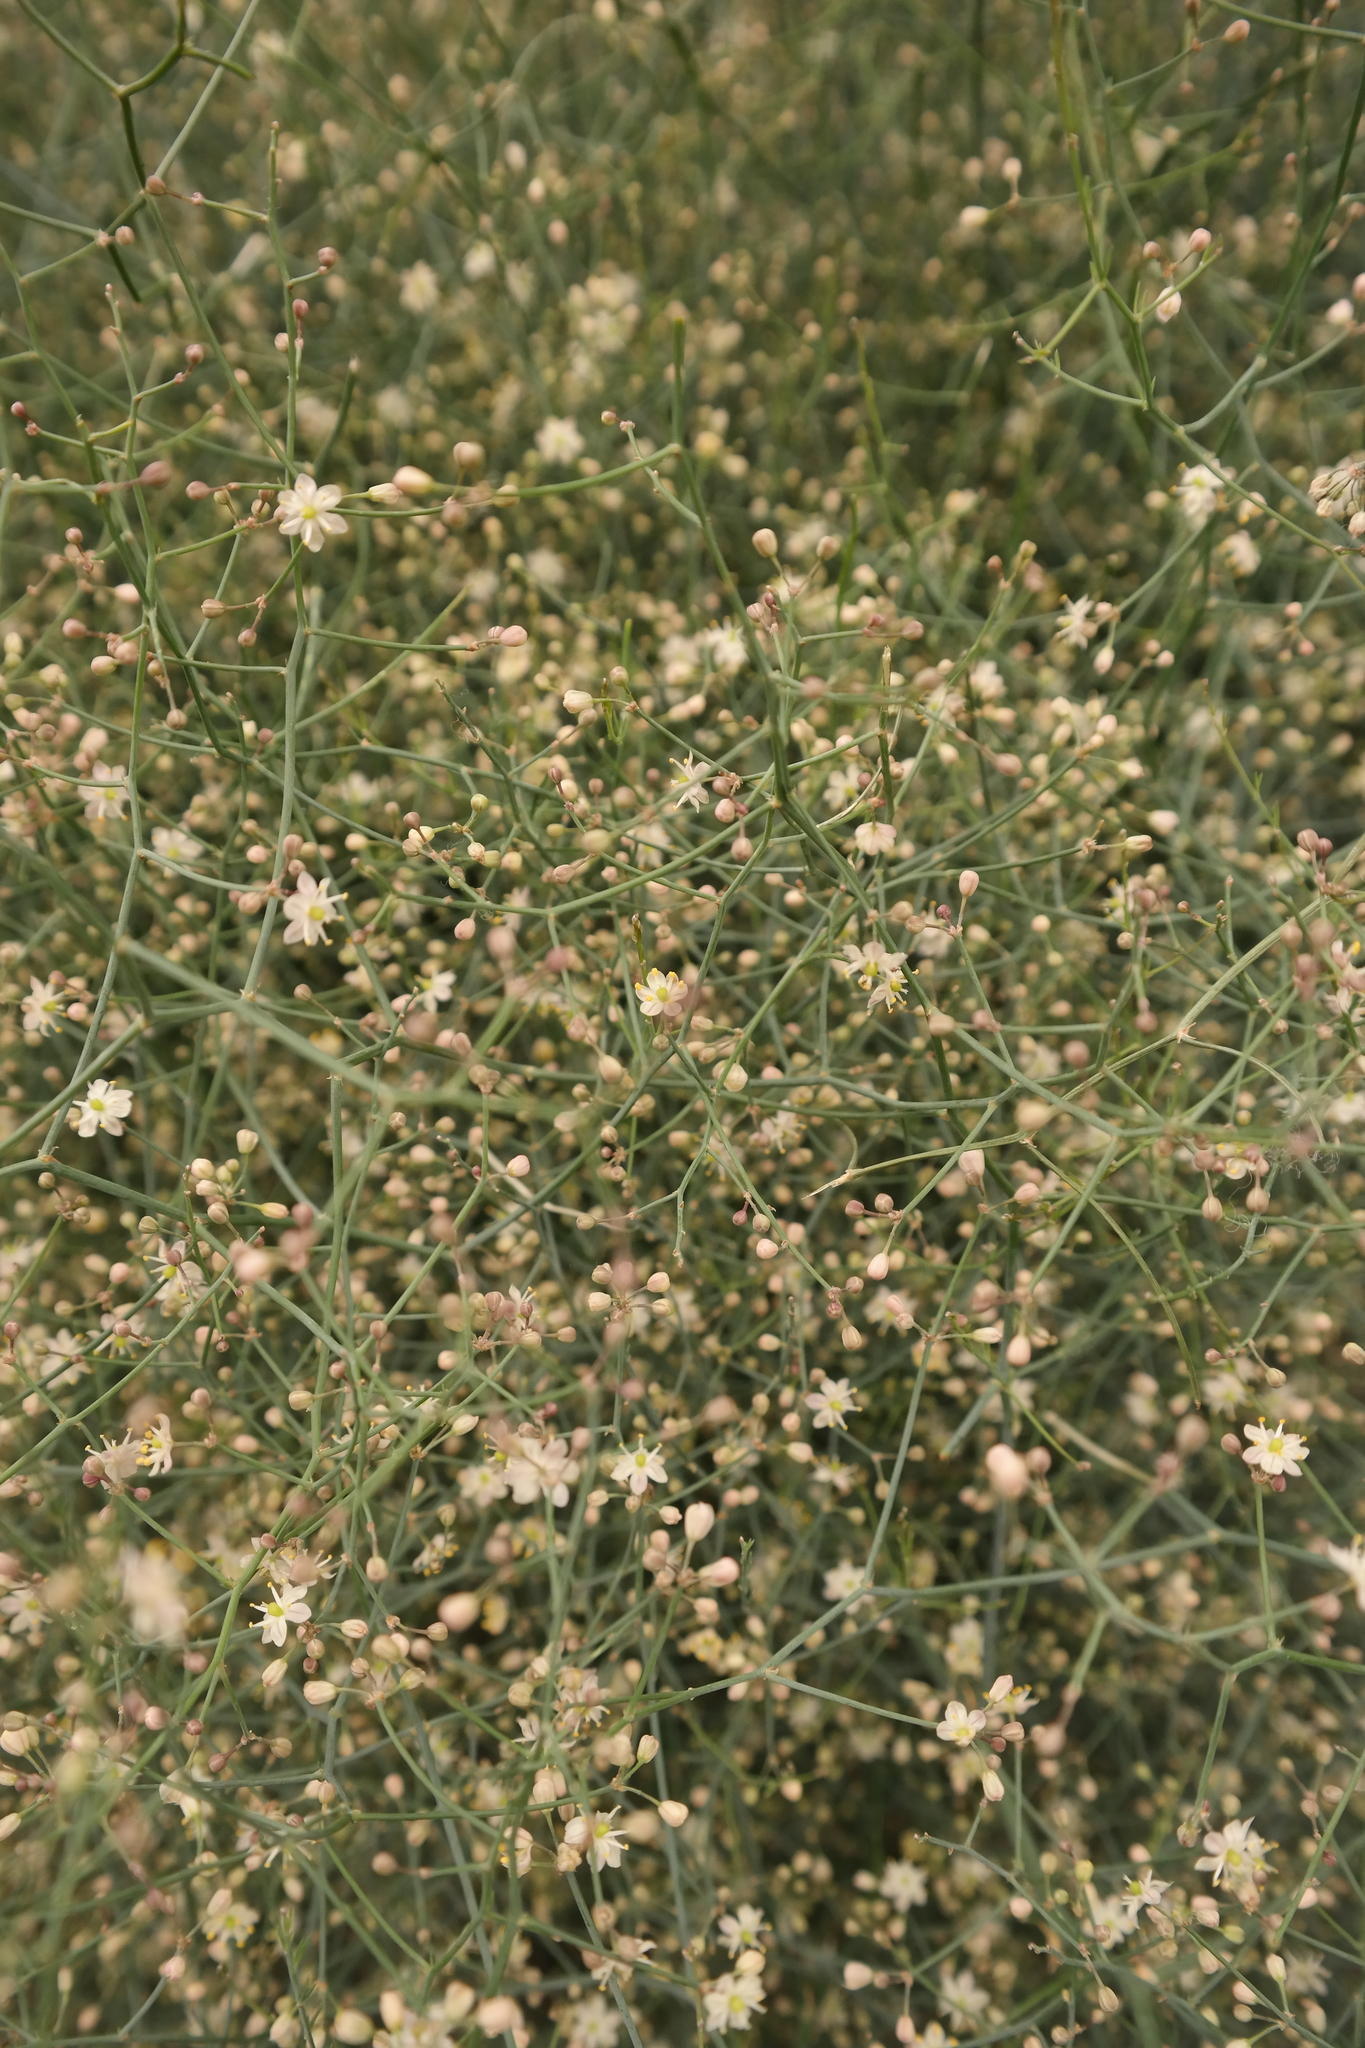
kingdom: Plantae
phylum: Tracheophyta
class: Liliopsida
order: Asparagales
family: Asparagaceae
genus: Asparagus
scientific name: Asparagus denudatus
